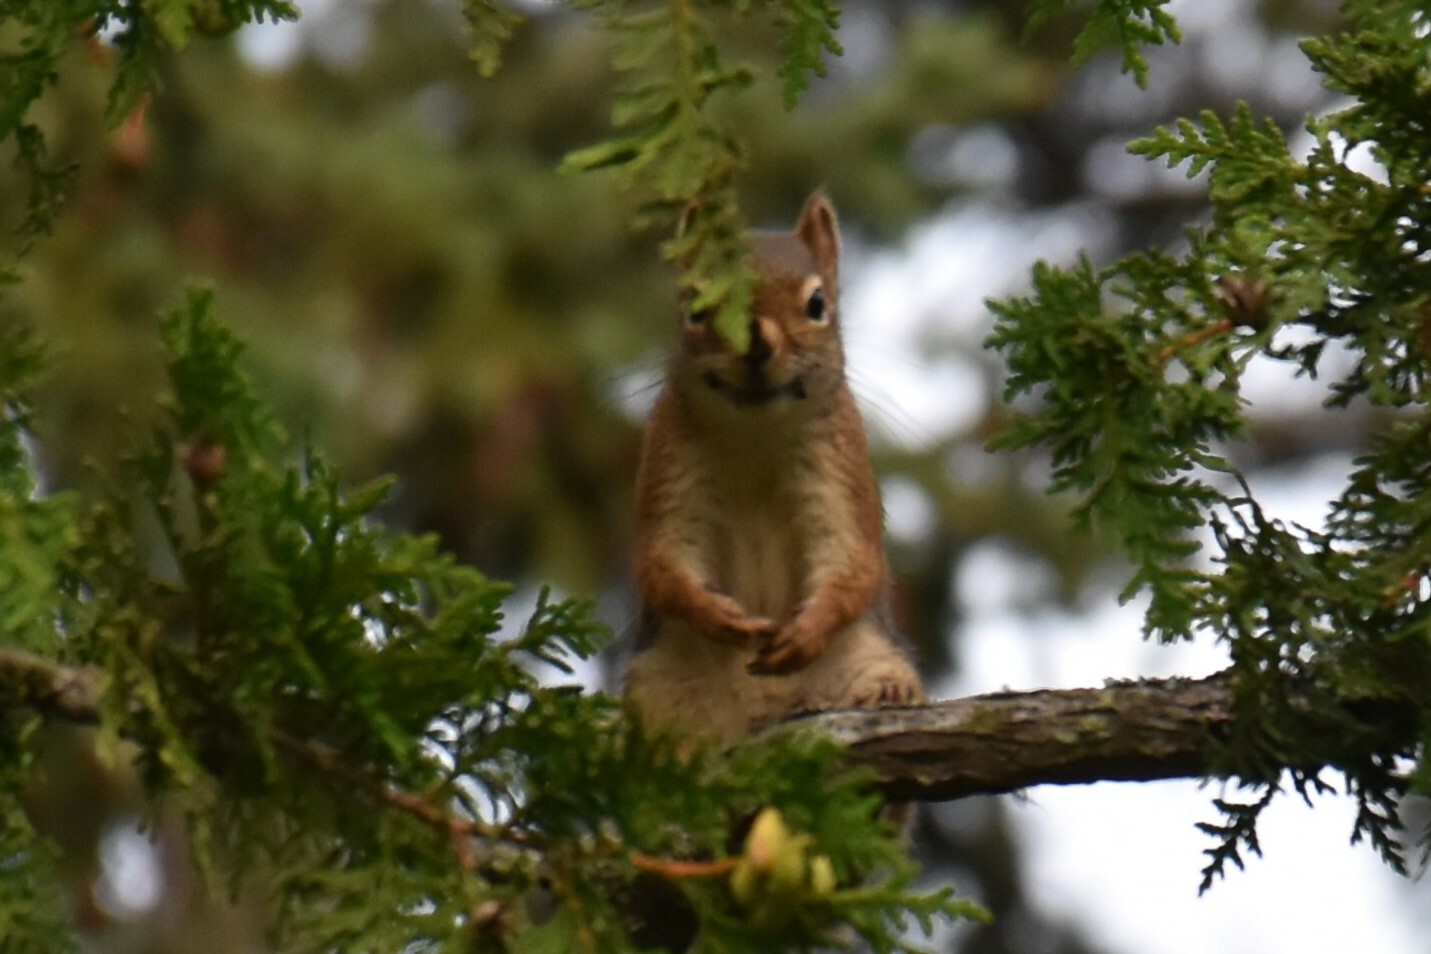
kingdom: Animalia
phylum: Chordata
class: Mammalia
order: Rodentia
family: Sciuridae
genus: Tamiasciurus
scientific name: Tamiasciurus hudsonicus
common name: Red squirrel
